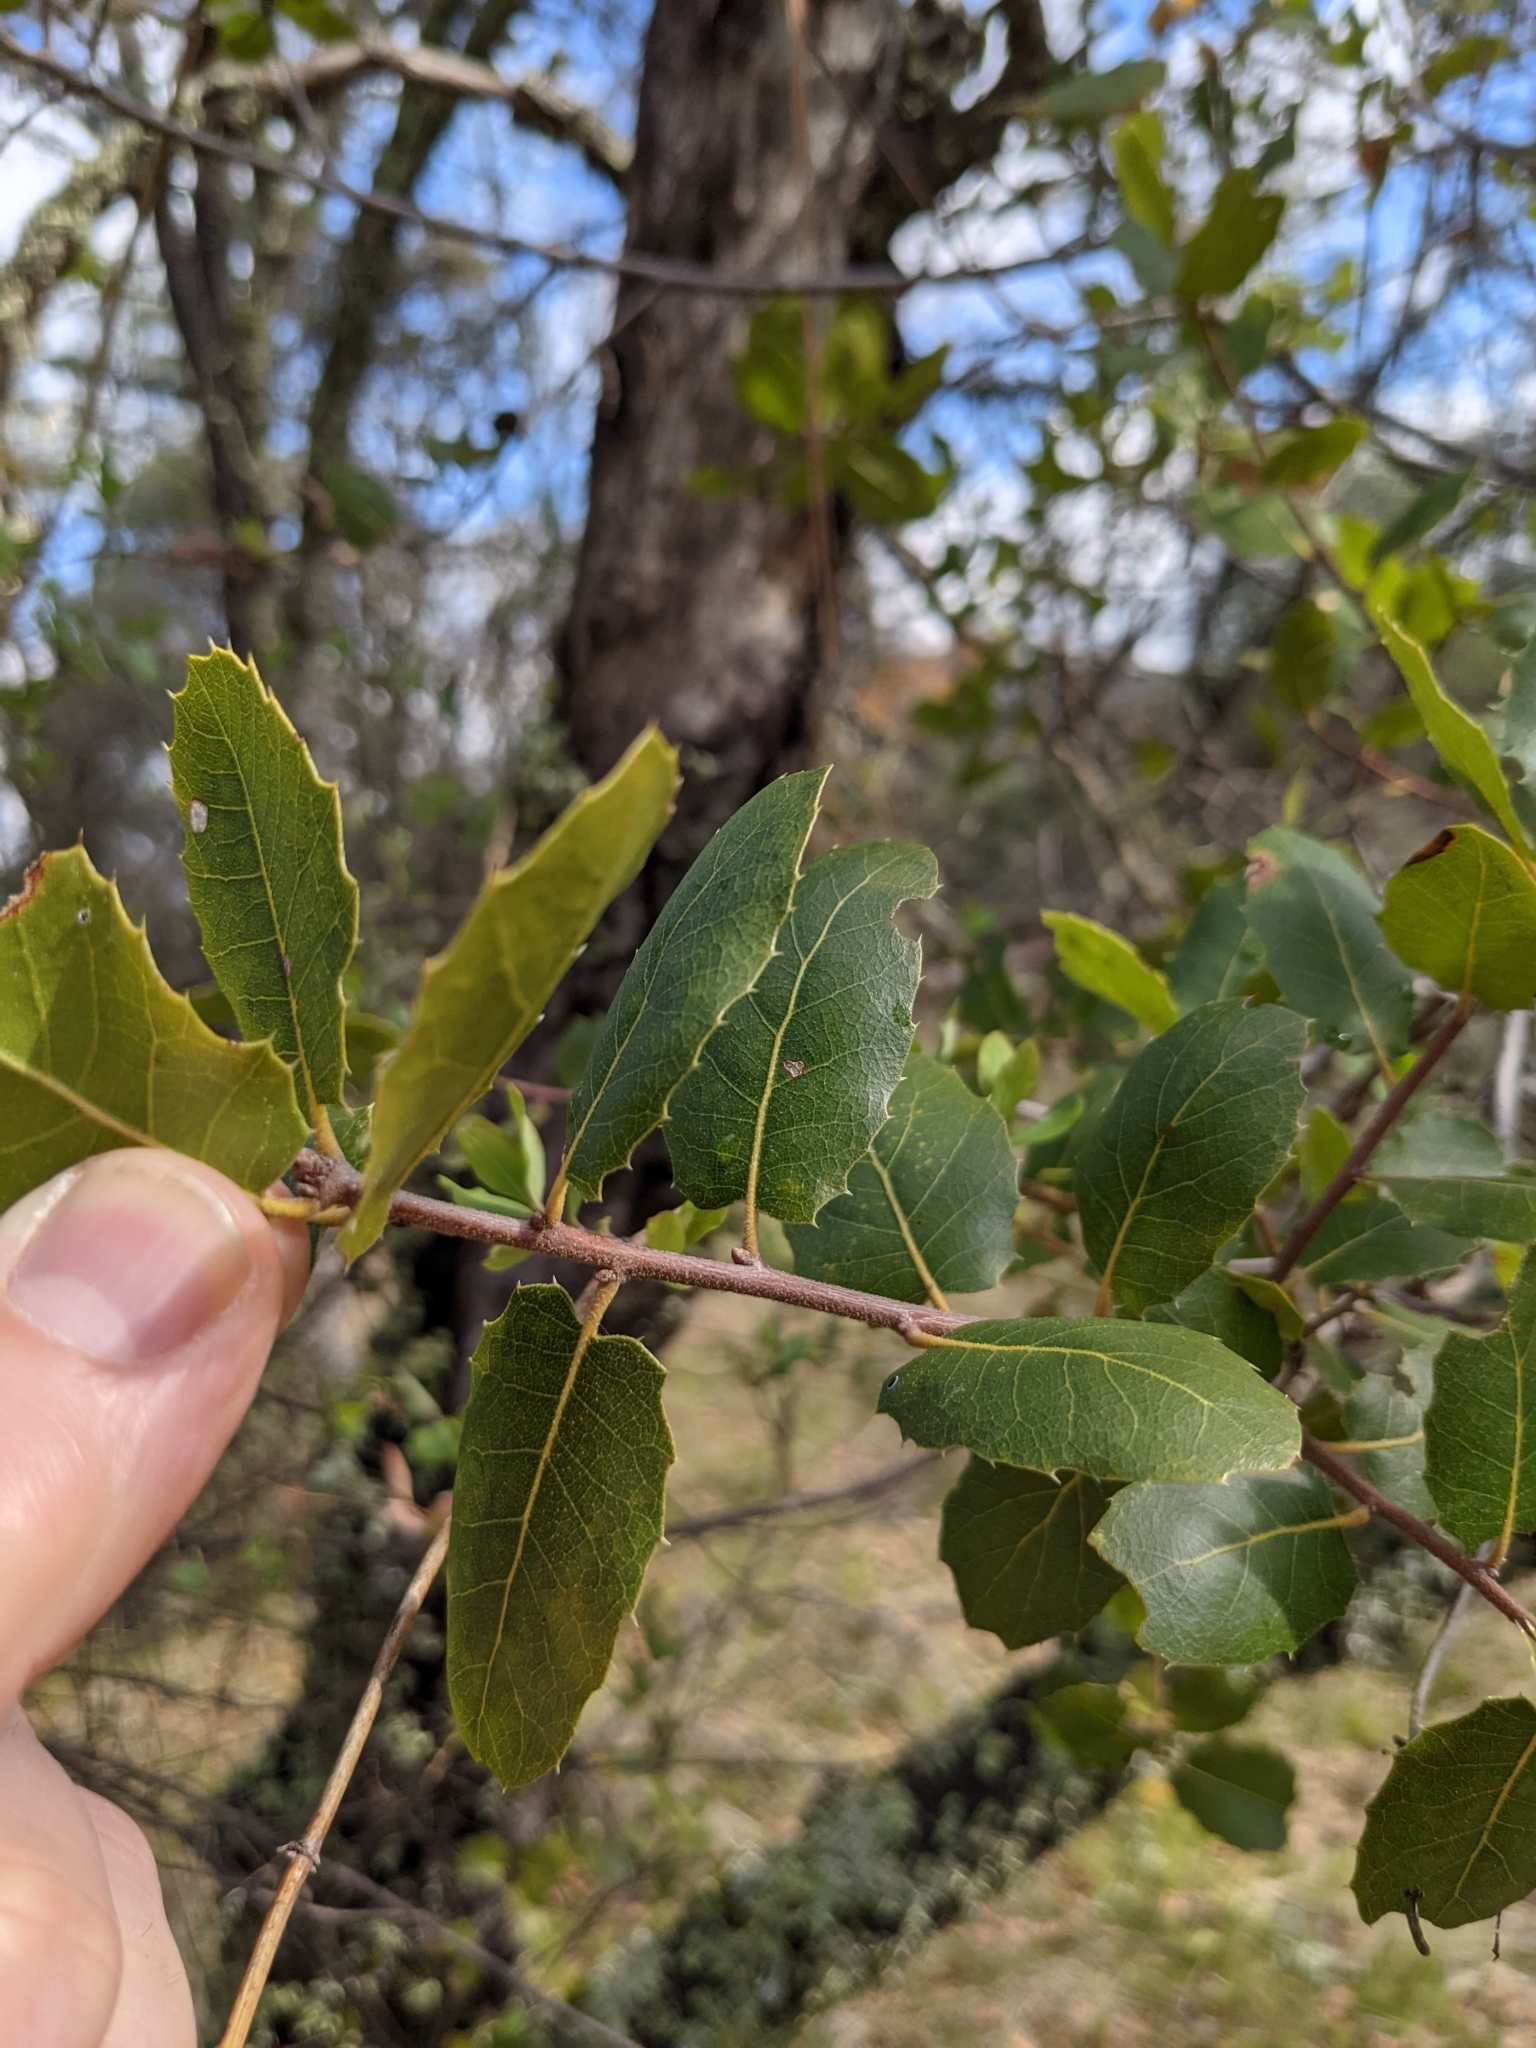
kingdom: Plantae
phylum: Tracheophyta
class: Magnoliopsida
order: Fagales
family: Fagaceae
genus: Quercus
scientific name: Quercus wislizeni
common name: Interior live oak
